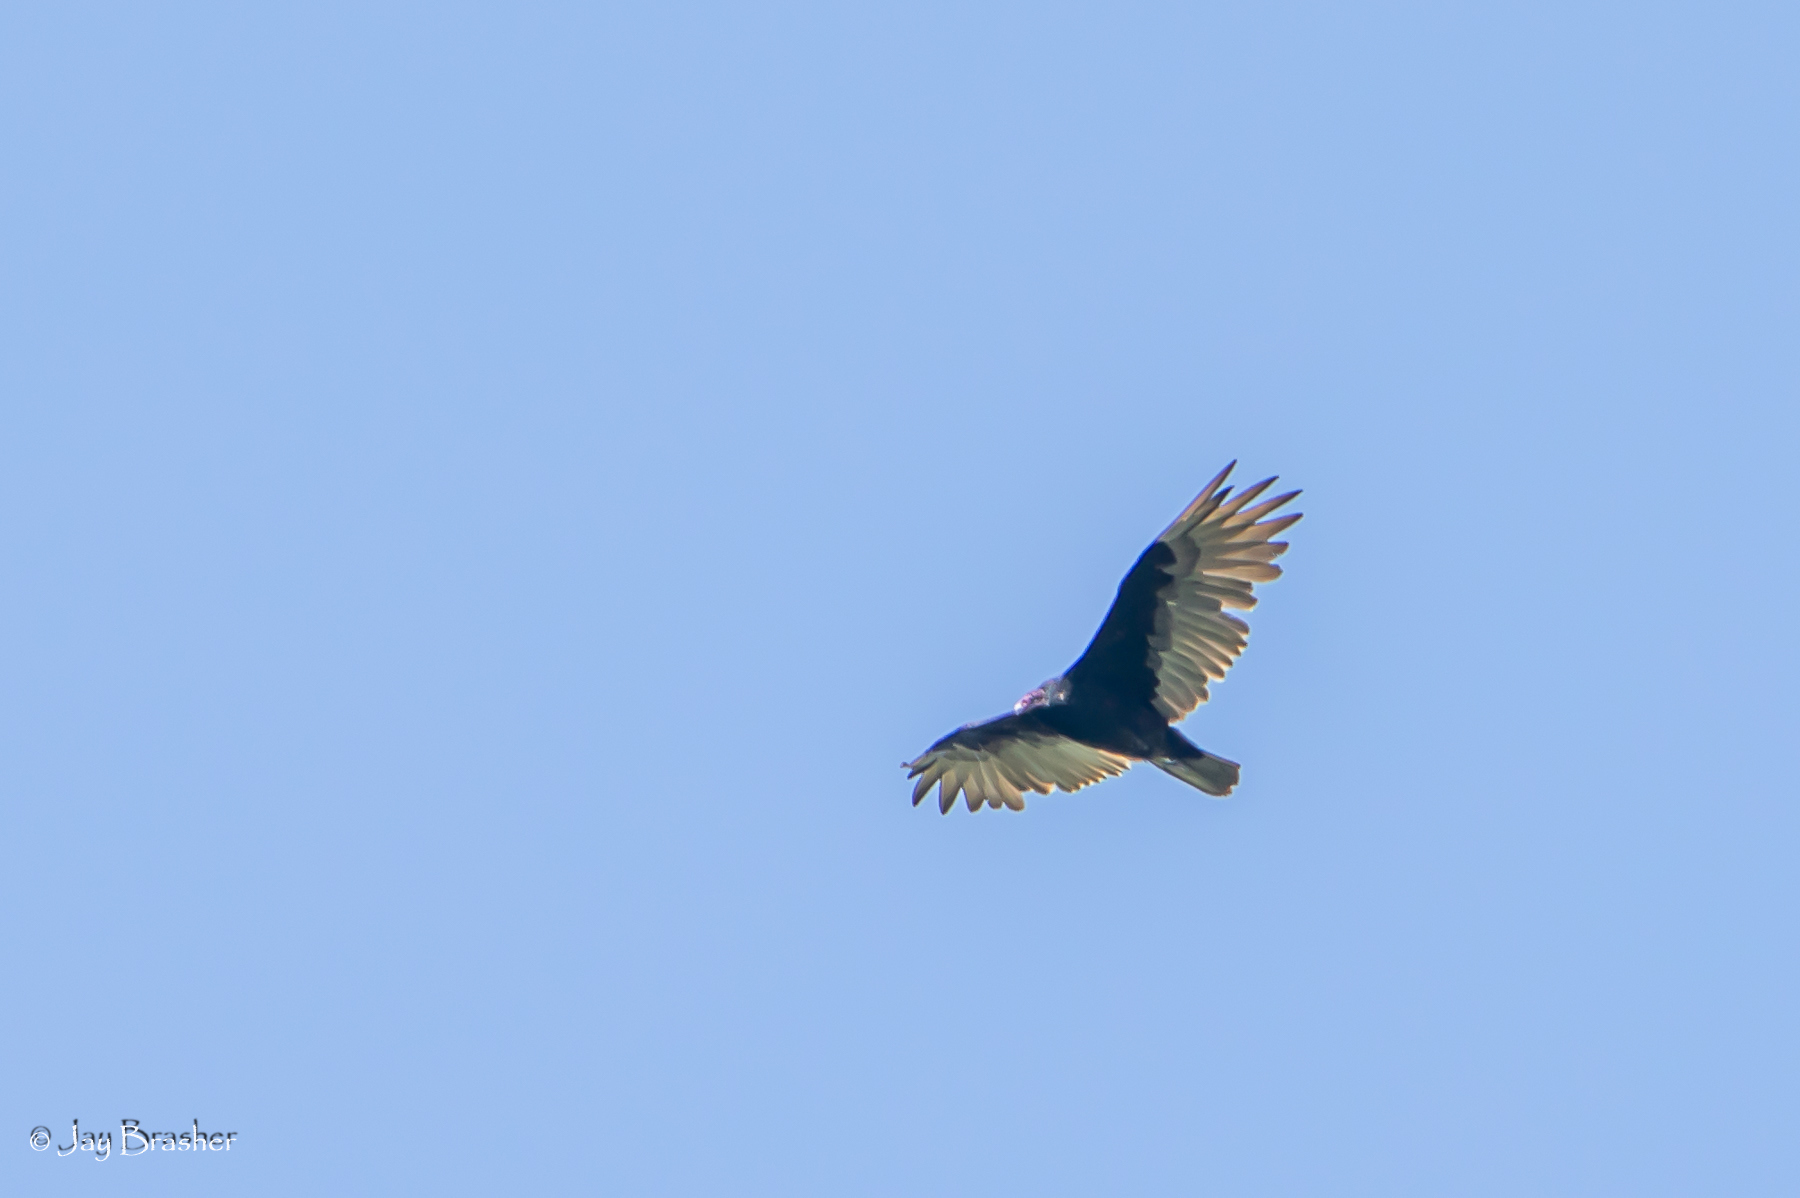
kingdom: Animalia
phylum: Chordata
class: Aves
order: Accipitriformes
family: Cathartidae
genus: Cathartes
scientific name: Cathartes aura
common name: Turkey vulture
